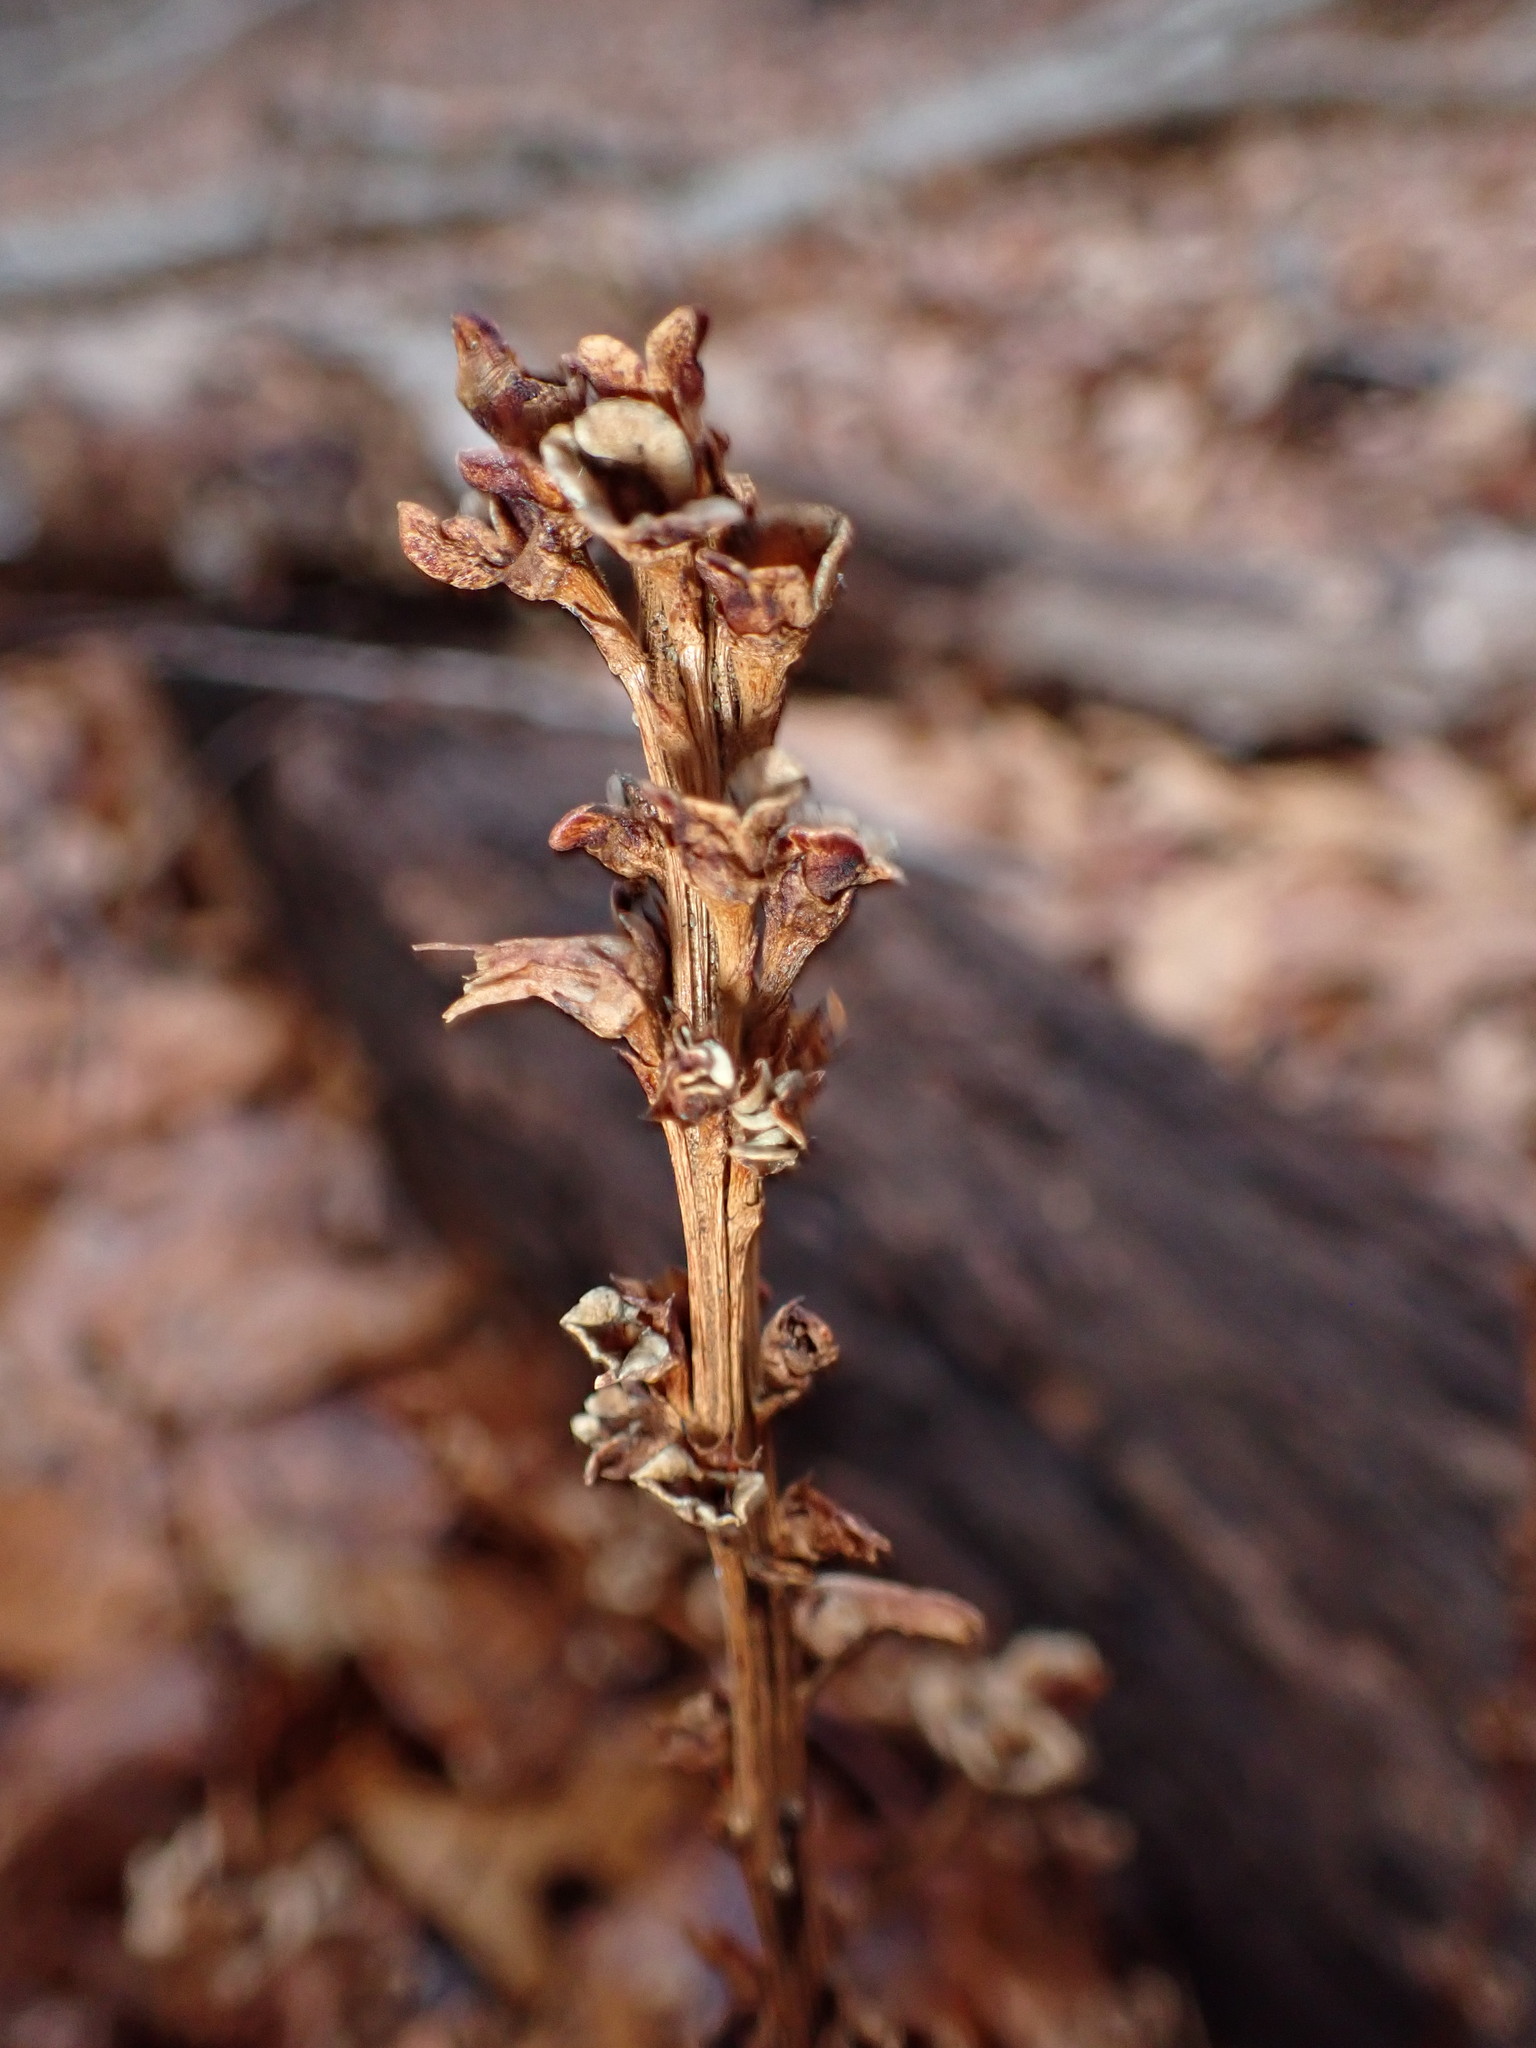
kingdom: Plantae
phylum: Tracheophyta
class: Magnoliopsida
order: Lamiales
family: Orobanchaceae
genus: Epifagus
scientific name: Epifagus virginiana
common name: Beechdrops
